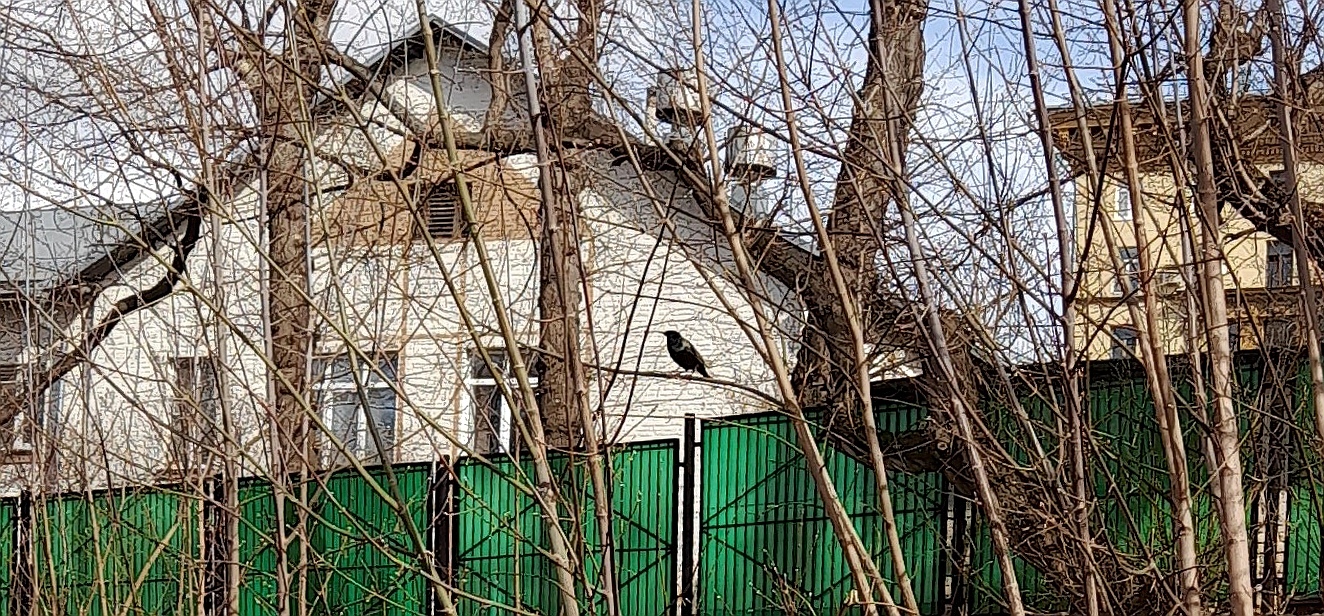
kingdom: Animalia
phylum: Chordata
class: Aves
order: Passeriformes
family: Sturnidae
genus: Sturnus
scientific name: Sturnus vulgaris
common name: Common starling
